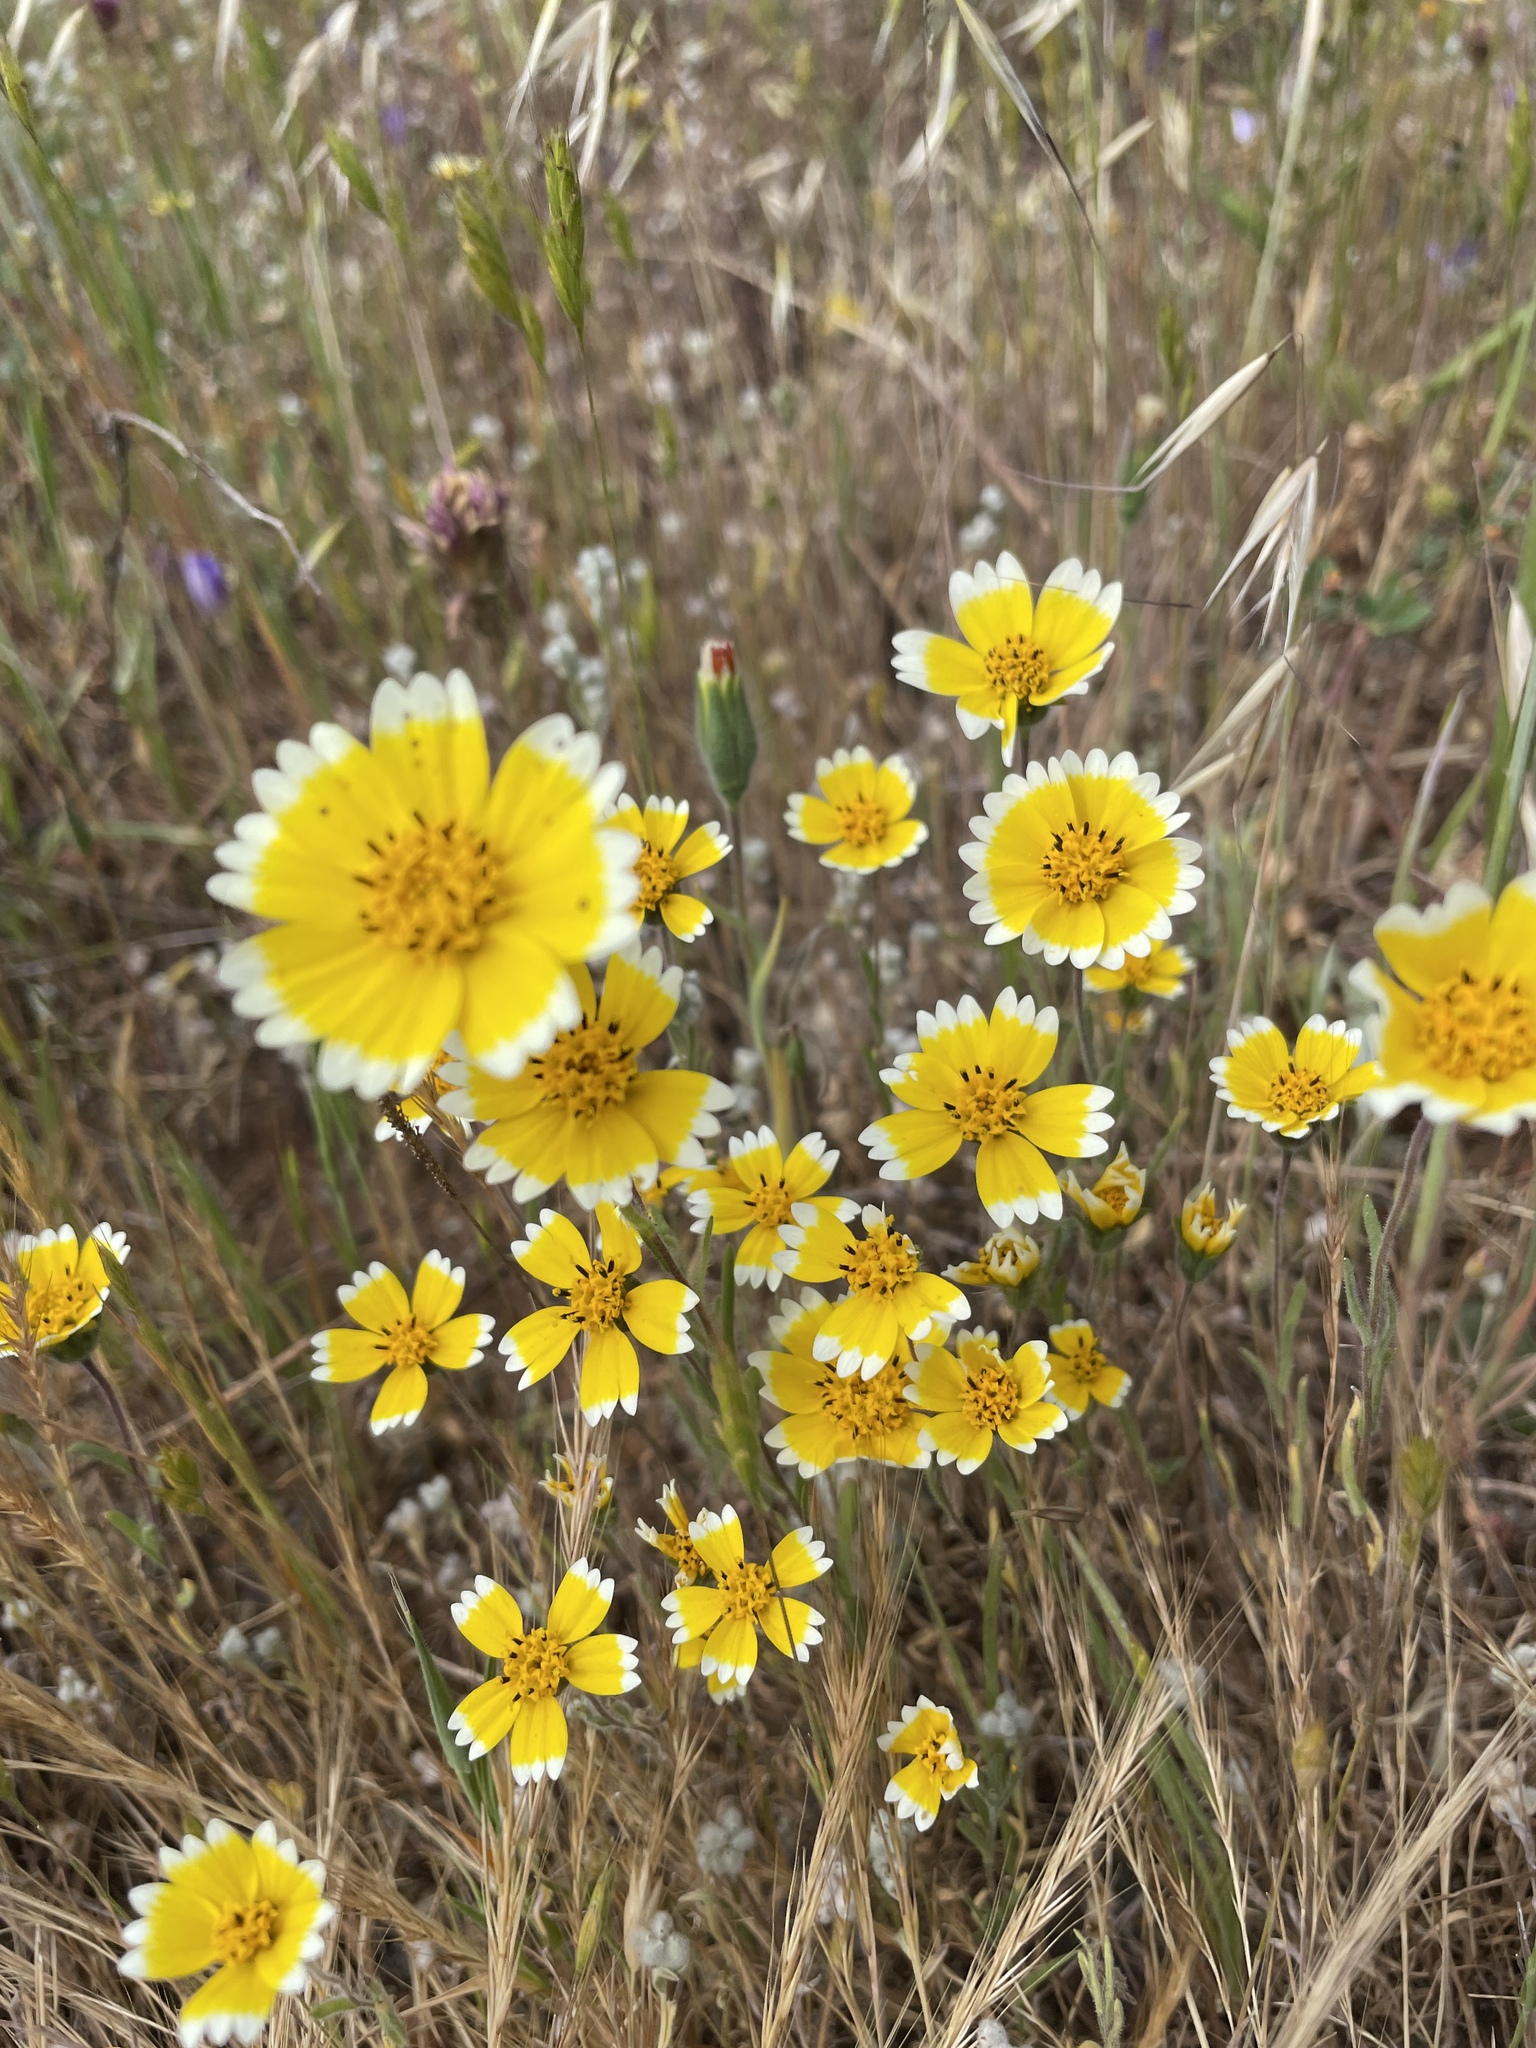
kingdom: Plantae
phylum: Tracheophyta
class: Magnoliopsida
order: Asterales
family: Asteraceae
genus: Layia
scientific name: Layia platyglossa
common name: Tidy-tips
